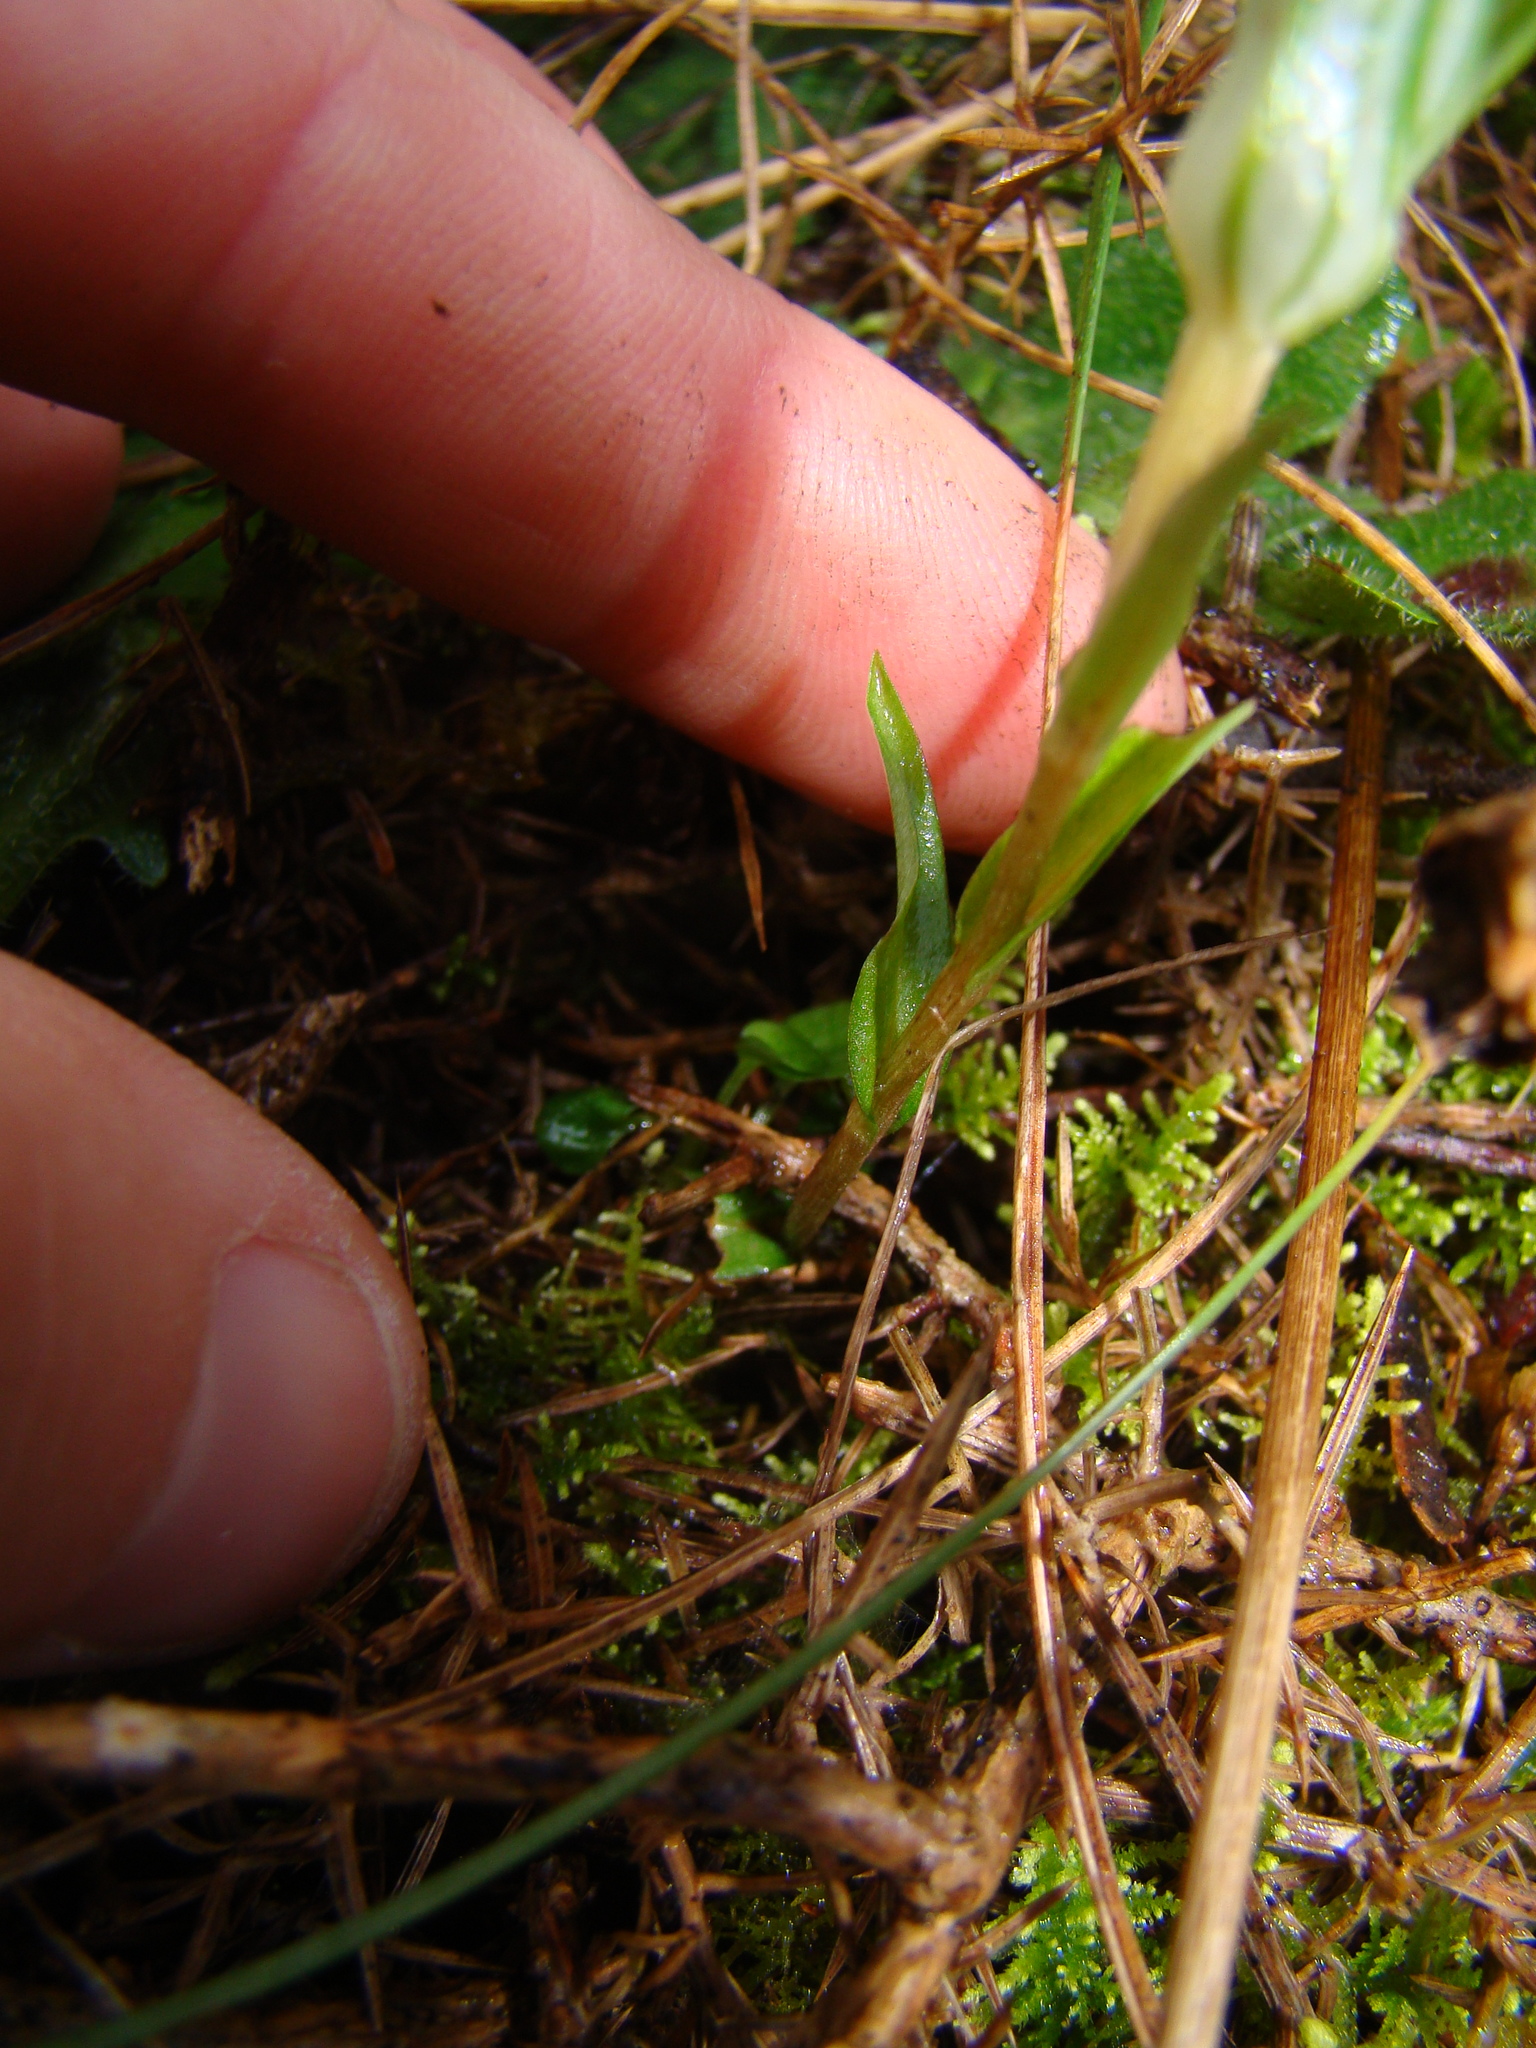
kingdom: Plantae
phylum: Tracheophyta
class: Liliopsida
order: Asparagales
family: Orchidaceae
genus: Pterostylis
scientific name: Pterostylis alobula
